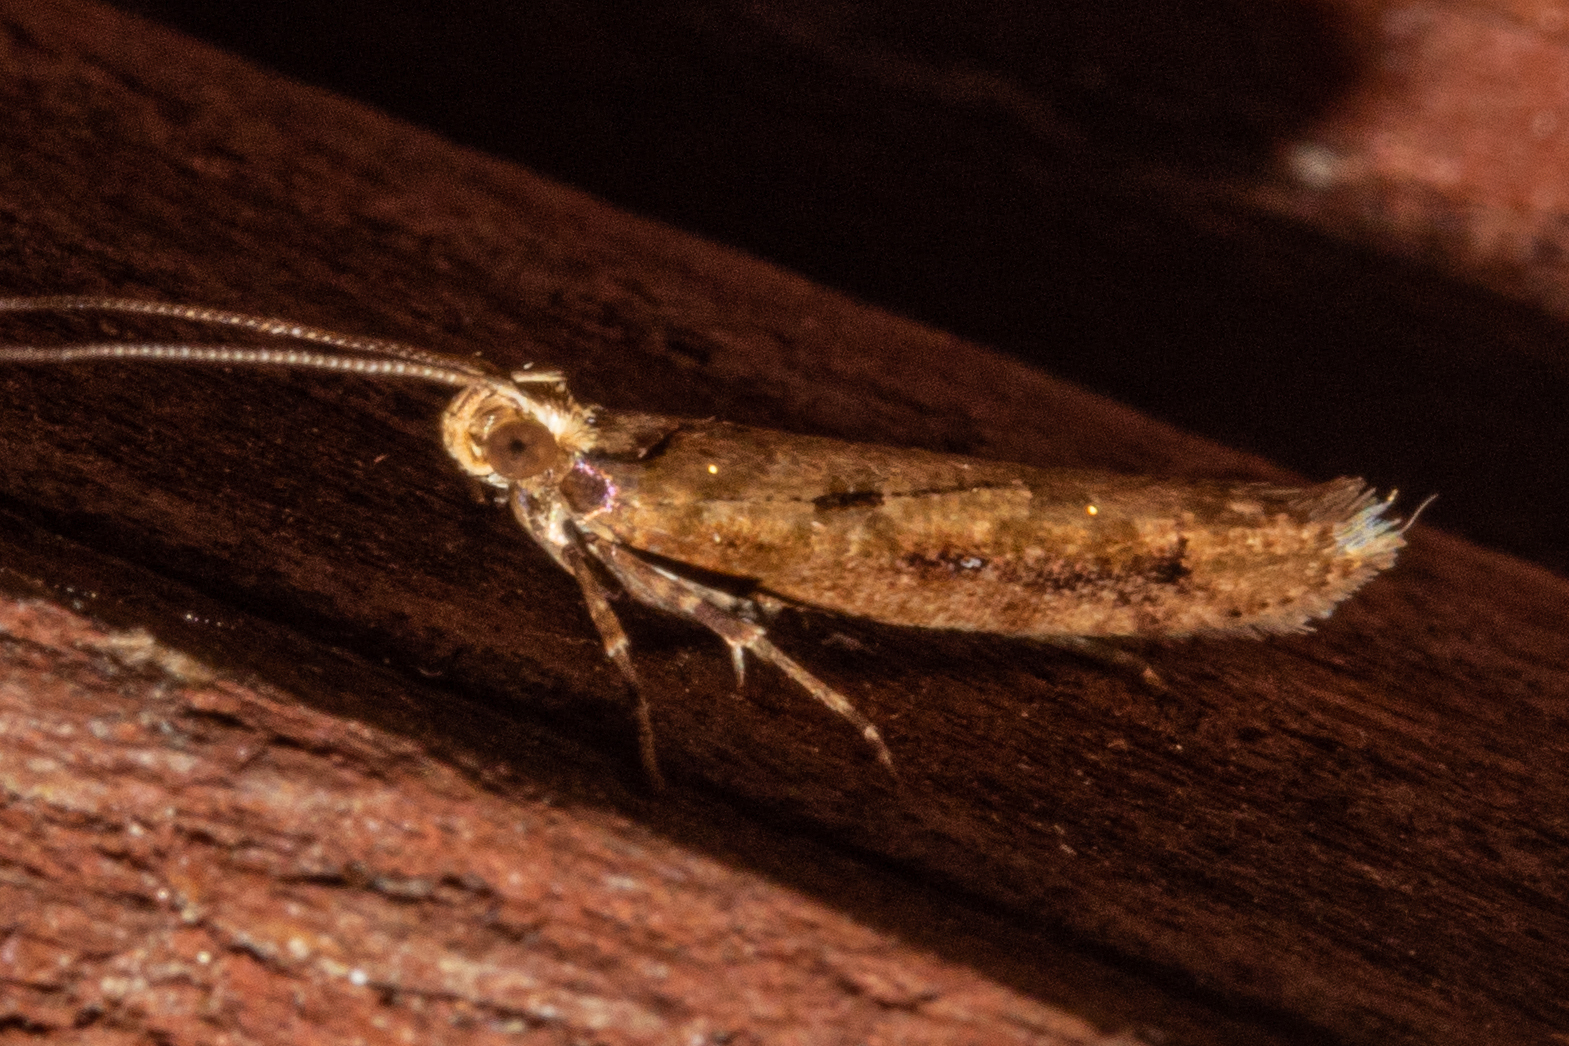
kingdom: Animalia
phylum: Arthropoda
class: Insecta
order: Lepidoptera
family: Glyphipterigidae
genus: Chrysorthenches
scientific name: Chrysorthenches porphyritis
